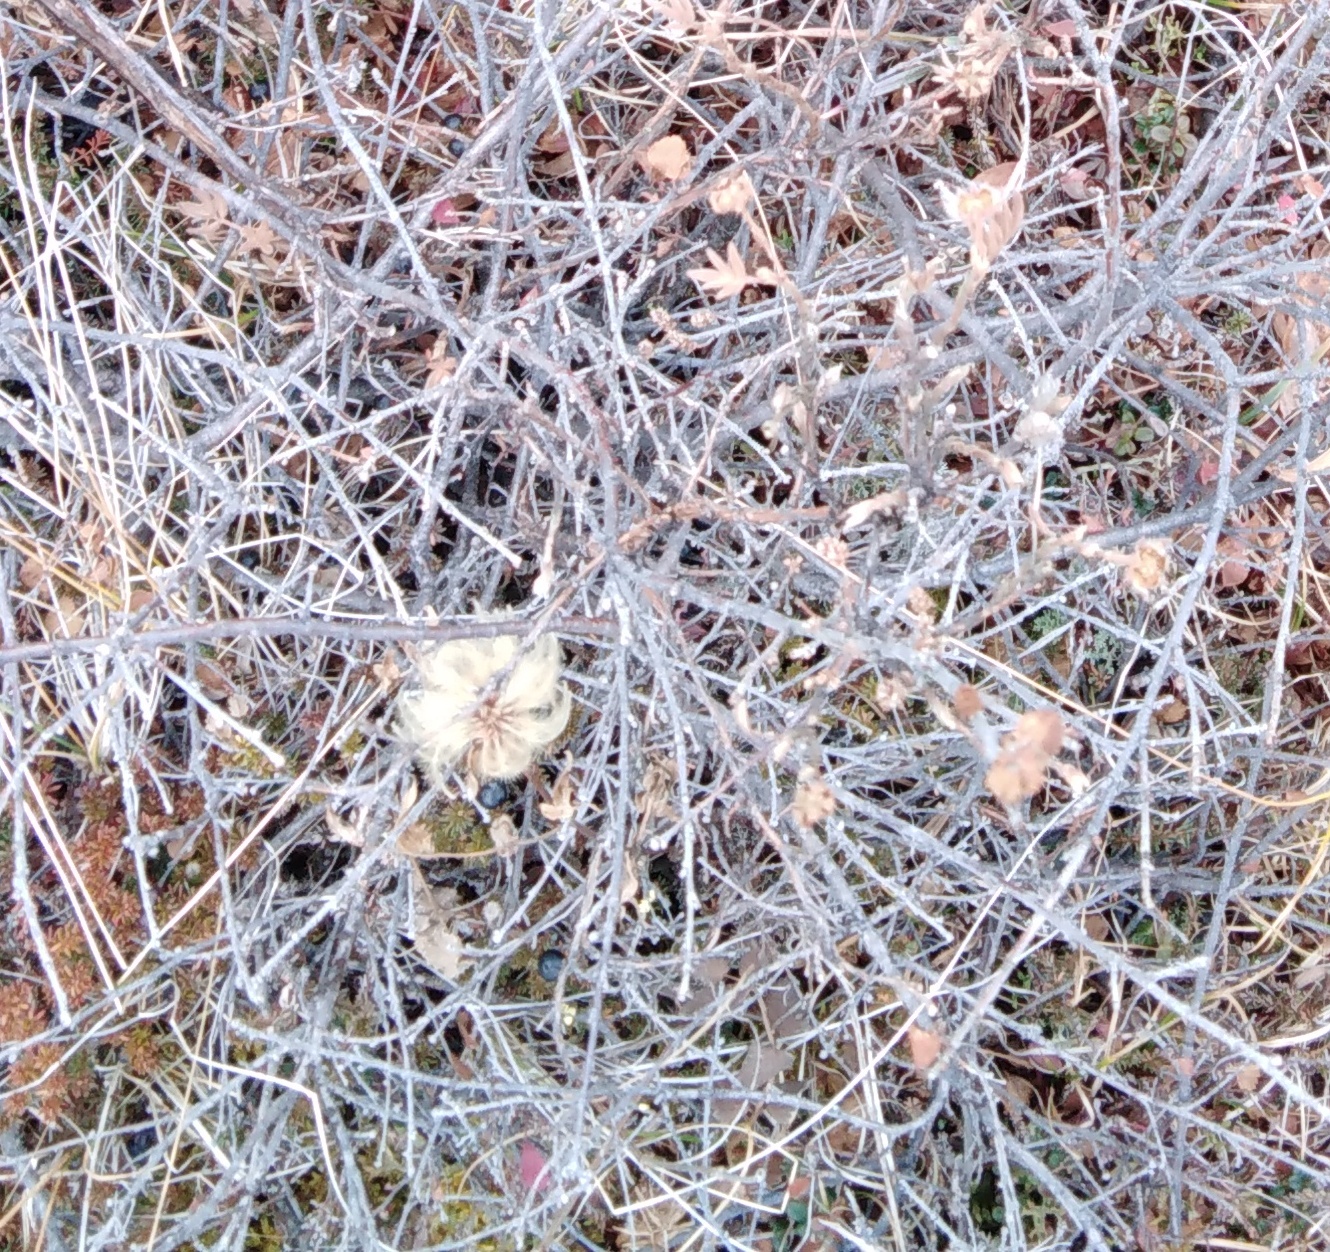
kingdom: Plantae
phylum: Tracheophyta
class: Magnoliopsida
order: Ranunculales
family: Ranunculaceae
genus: Clematis
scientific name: Clematis fusca
